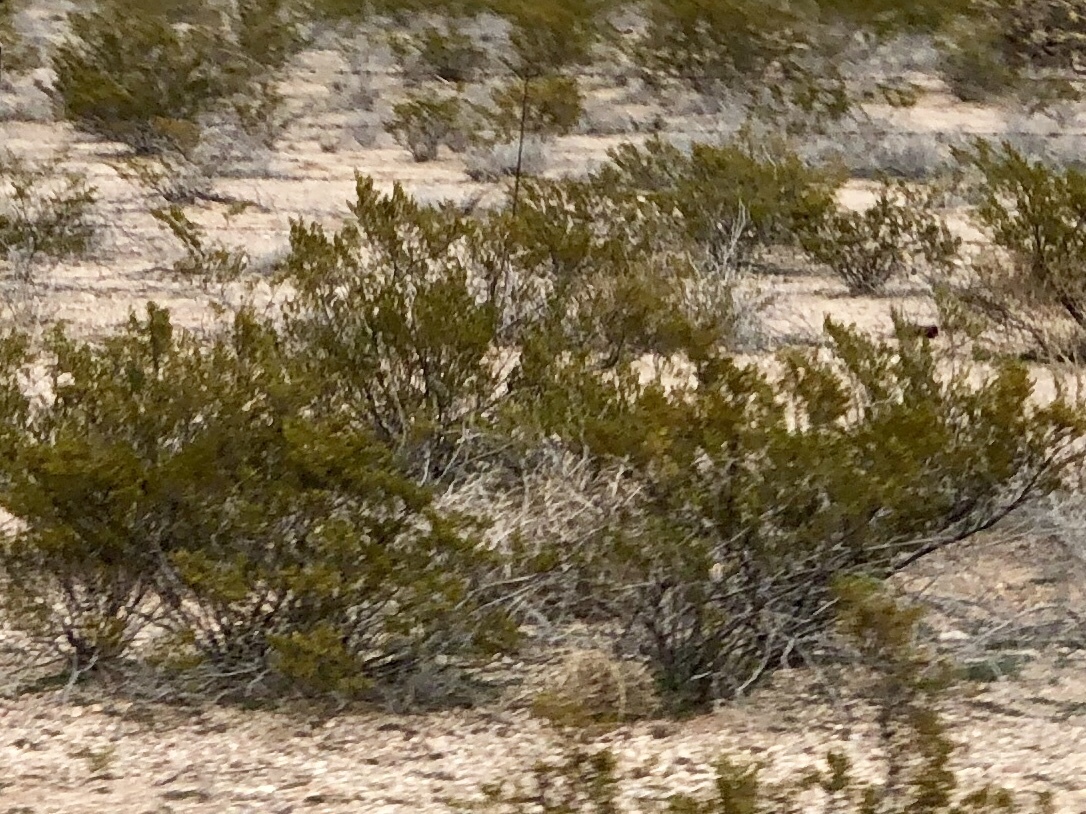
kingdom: Plantae
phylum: Tracheophyta
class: Magnoliopsida
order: Zygophyllales
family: Zygophyllaceae
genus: Larrea
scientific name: Larrea tridentata
